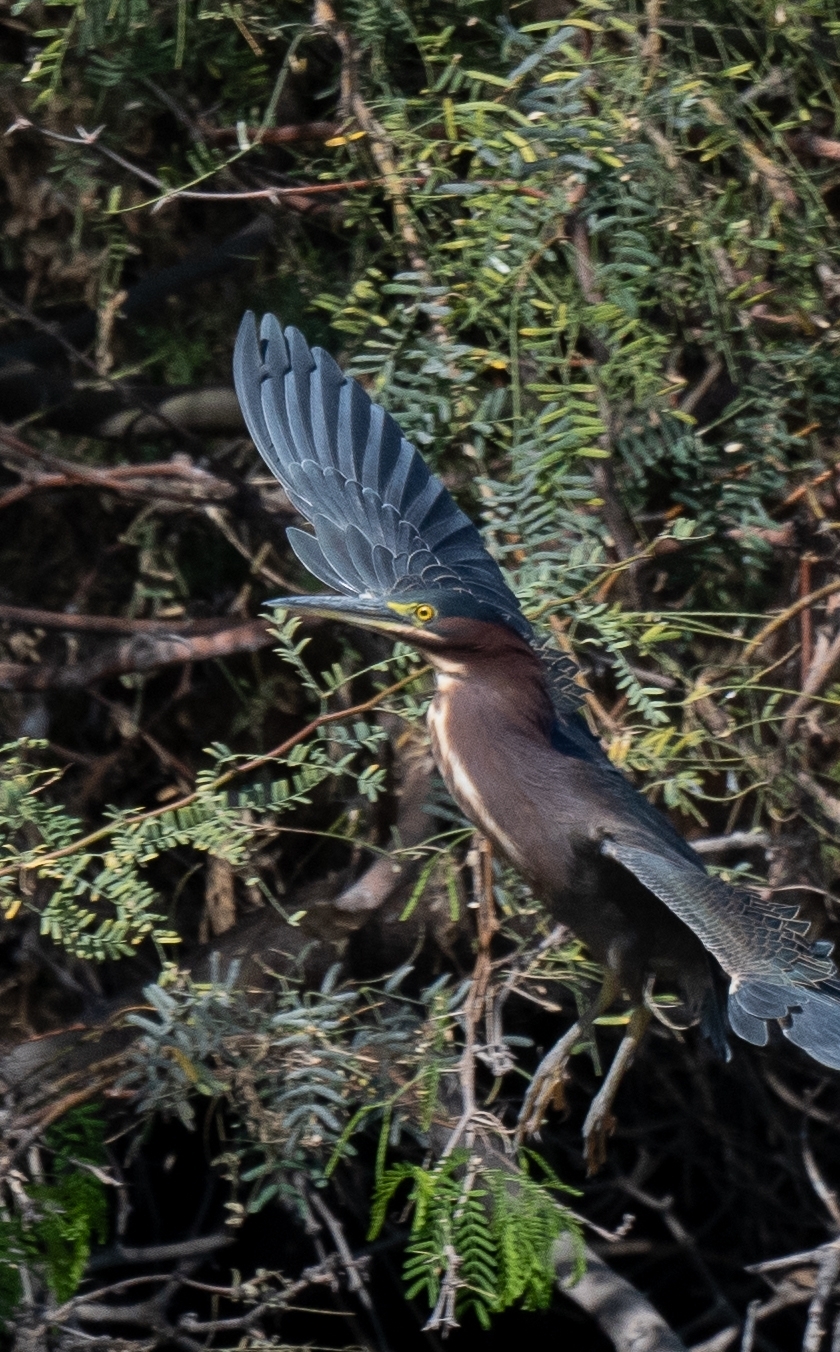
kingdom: Animalia
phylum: Chordata
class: Aves
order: Pelecaniformes
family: Ardeidae
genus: Butorides
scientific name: Butorides virescens
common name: Green heron
